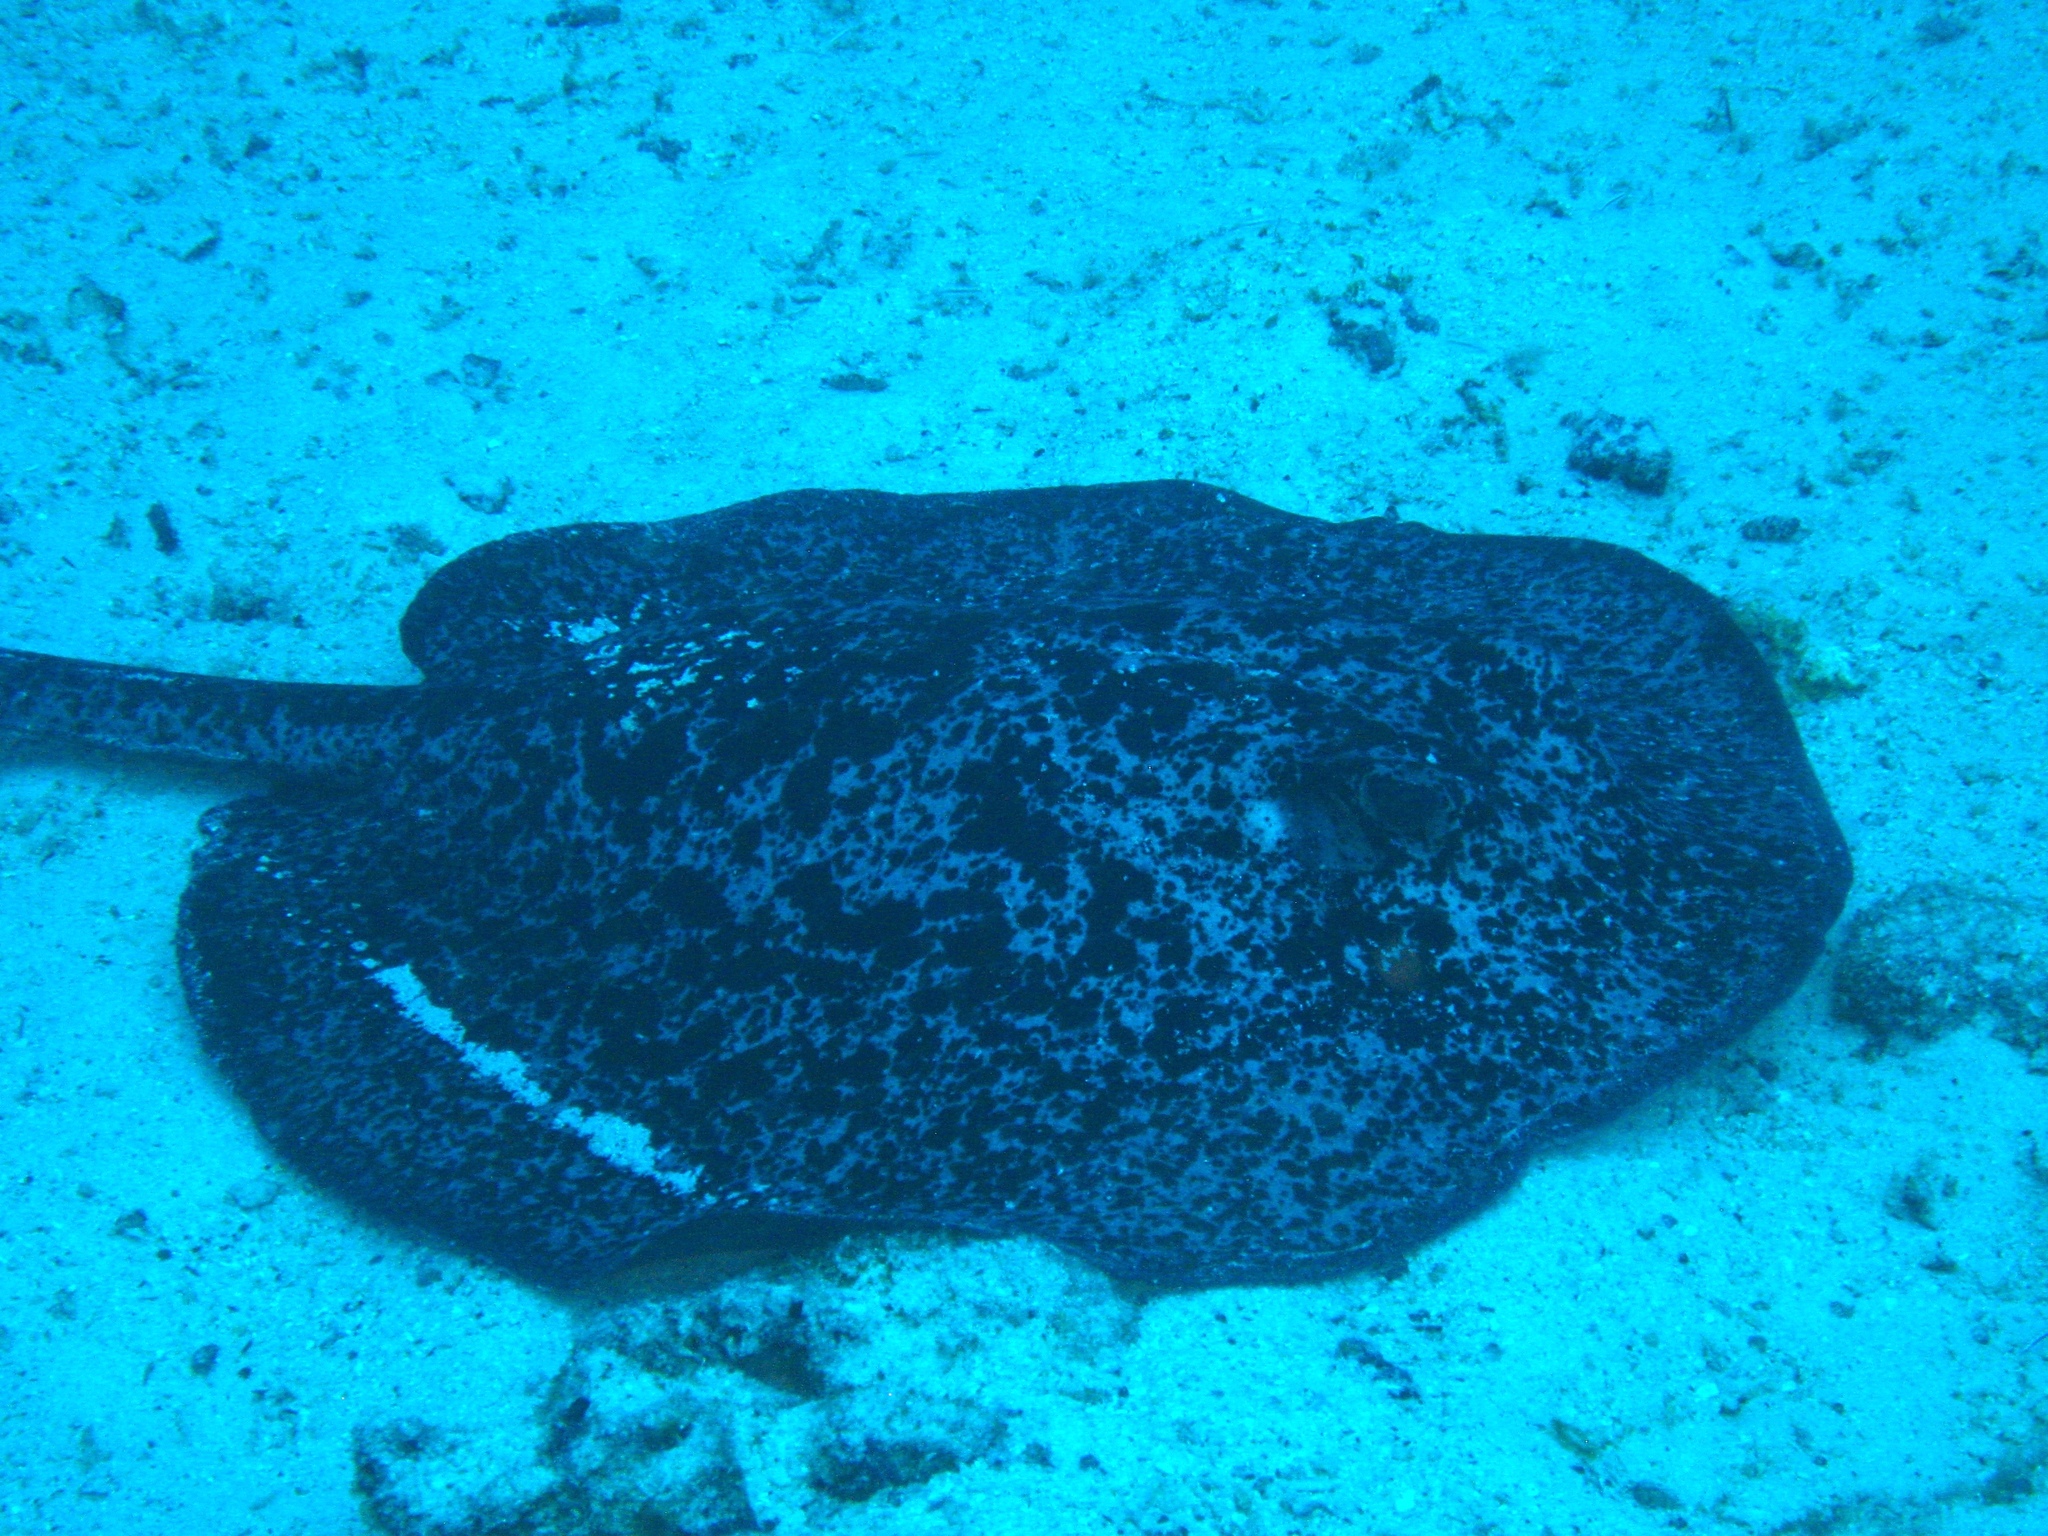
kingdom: Animalia
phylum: Chordata
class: Elasmobranchii
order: Myliobatiformes
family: Dasyatidae
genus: Taeniurops
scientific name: Taeniurops meyeni
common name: Black-blotched stingray
